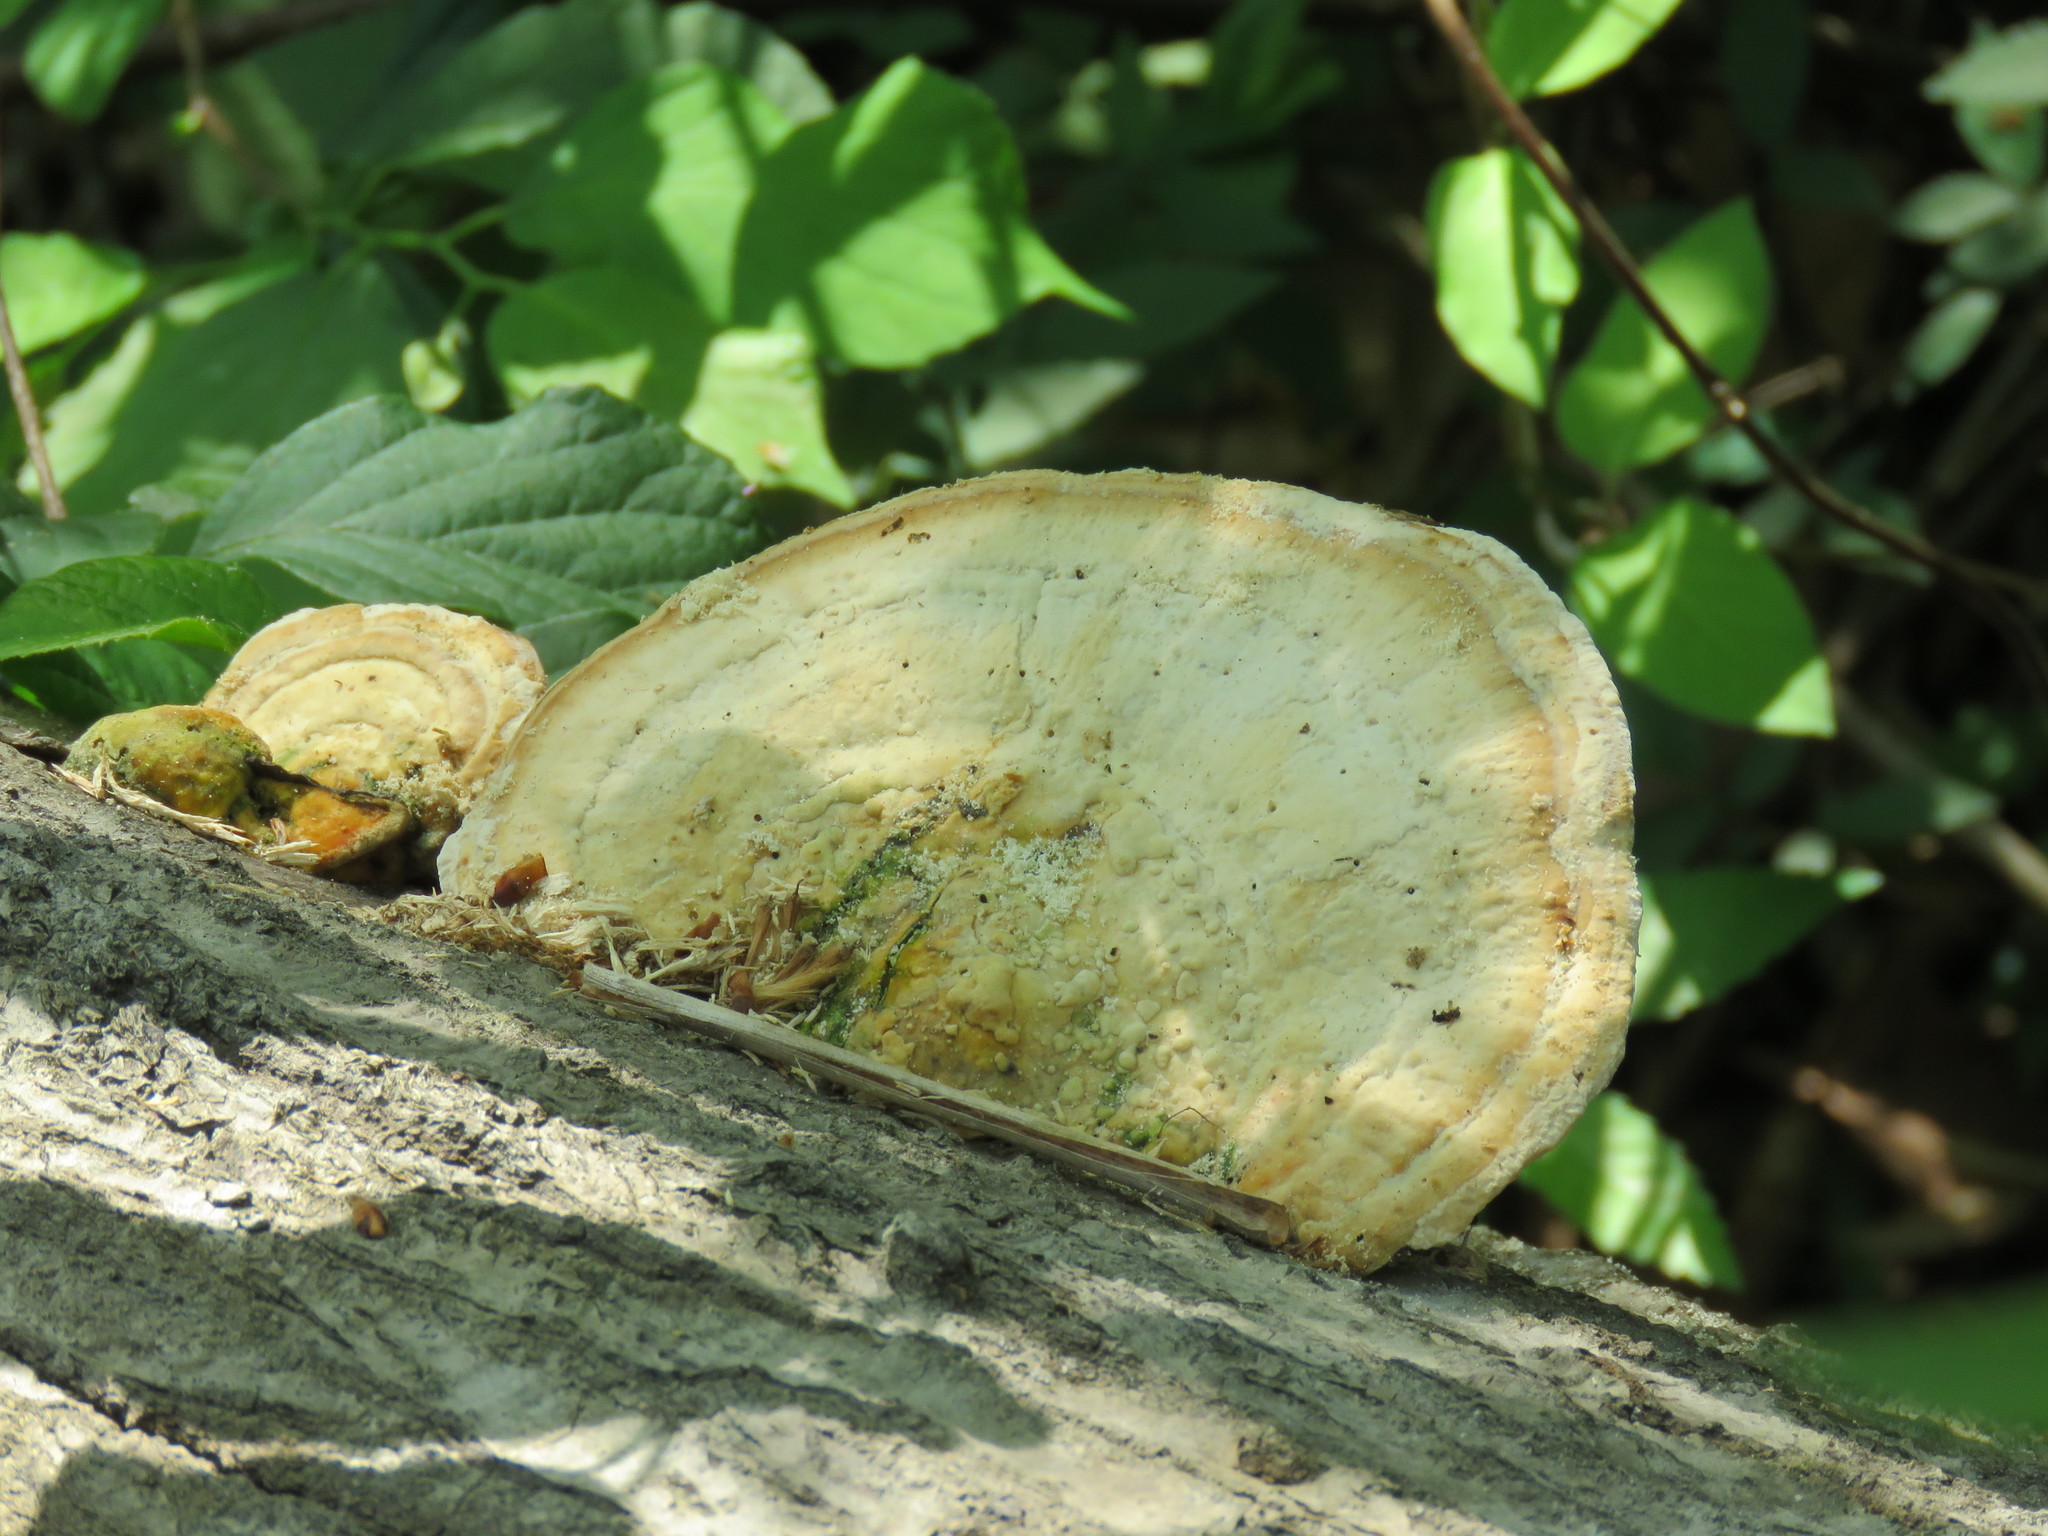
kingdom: Fungi
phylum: Basidiomycota
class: Agaricomycetes
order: Polyporales
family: Polyporaceae
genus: Trametes
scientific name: Trametes lactinea
